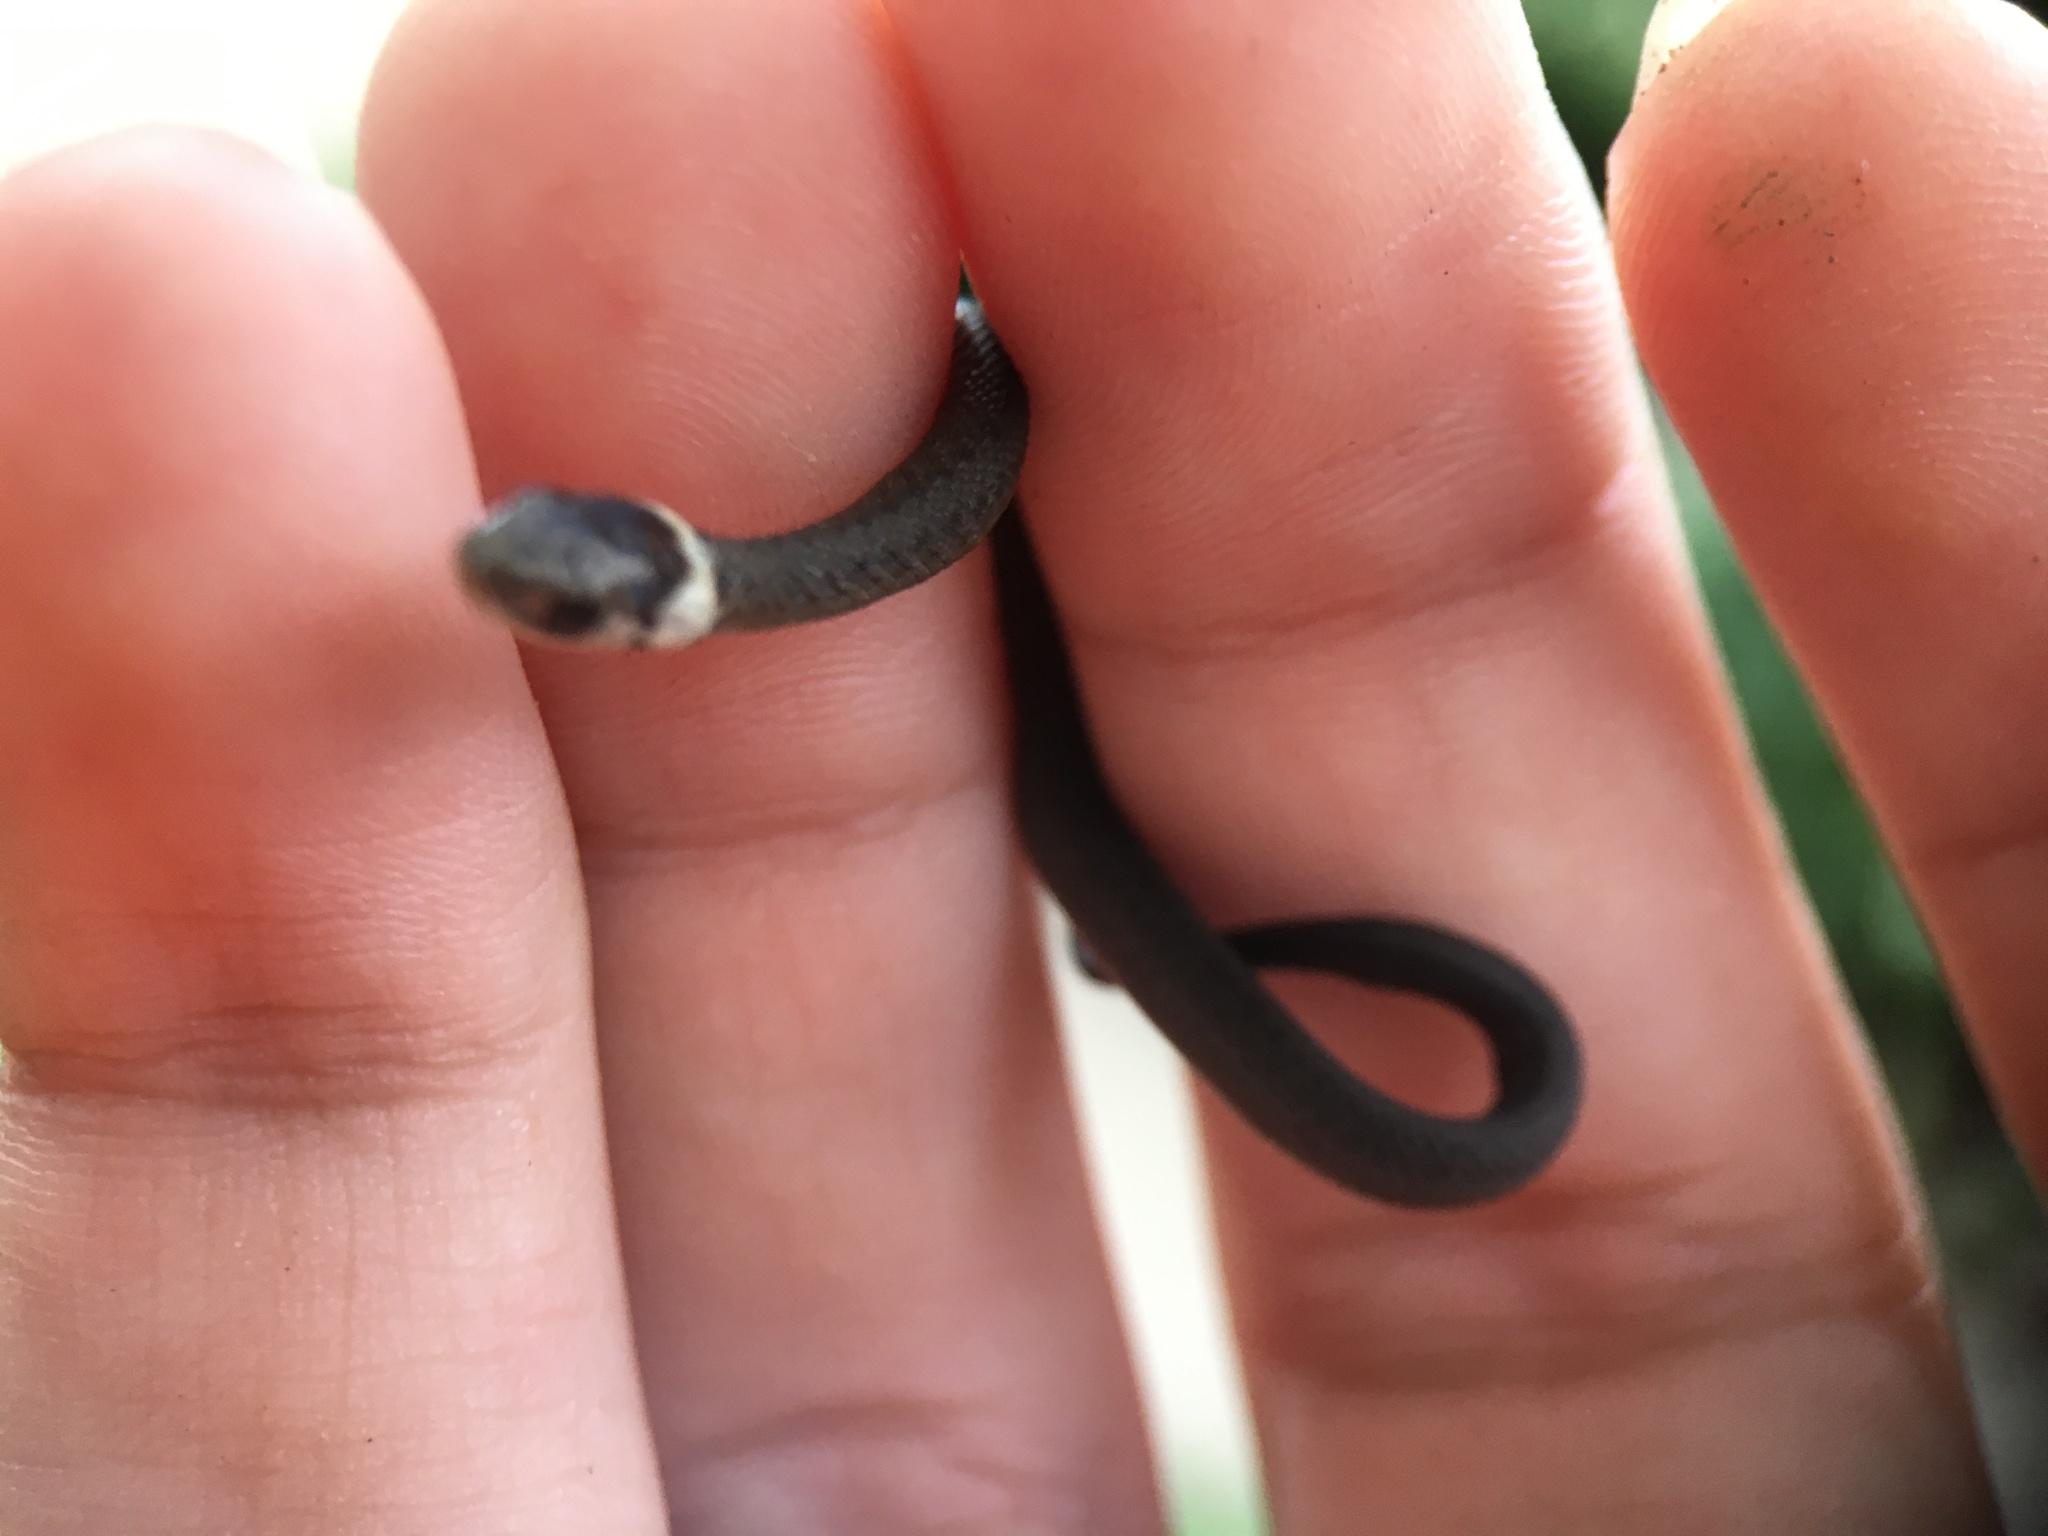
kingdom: Animalia
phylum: Chordata
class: Squamata
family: Colubridae
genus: Storeria
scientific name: Storeria dekayi
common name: (dekay’s) brown snake
